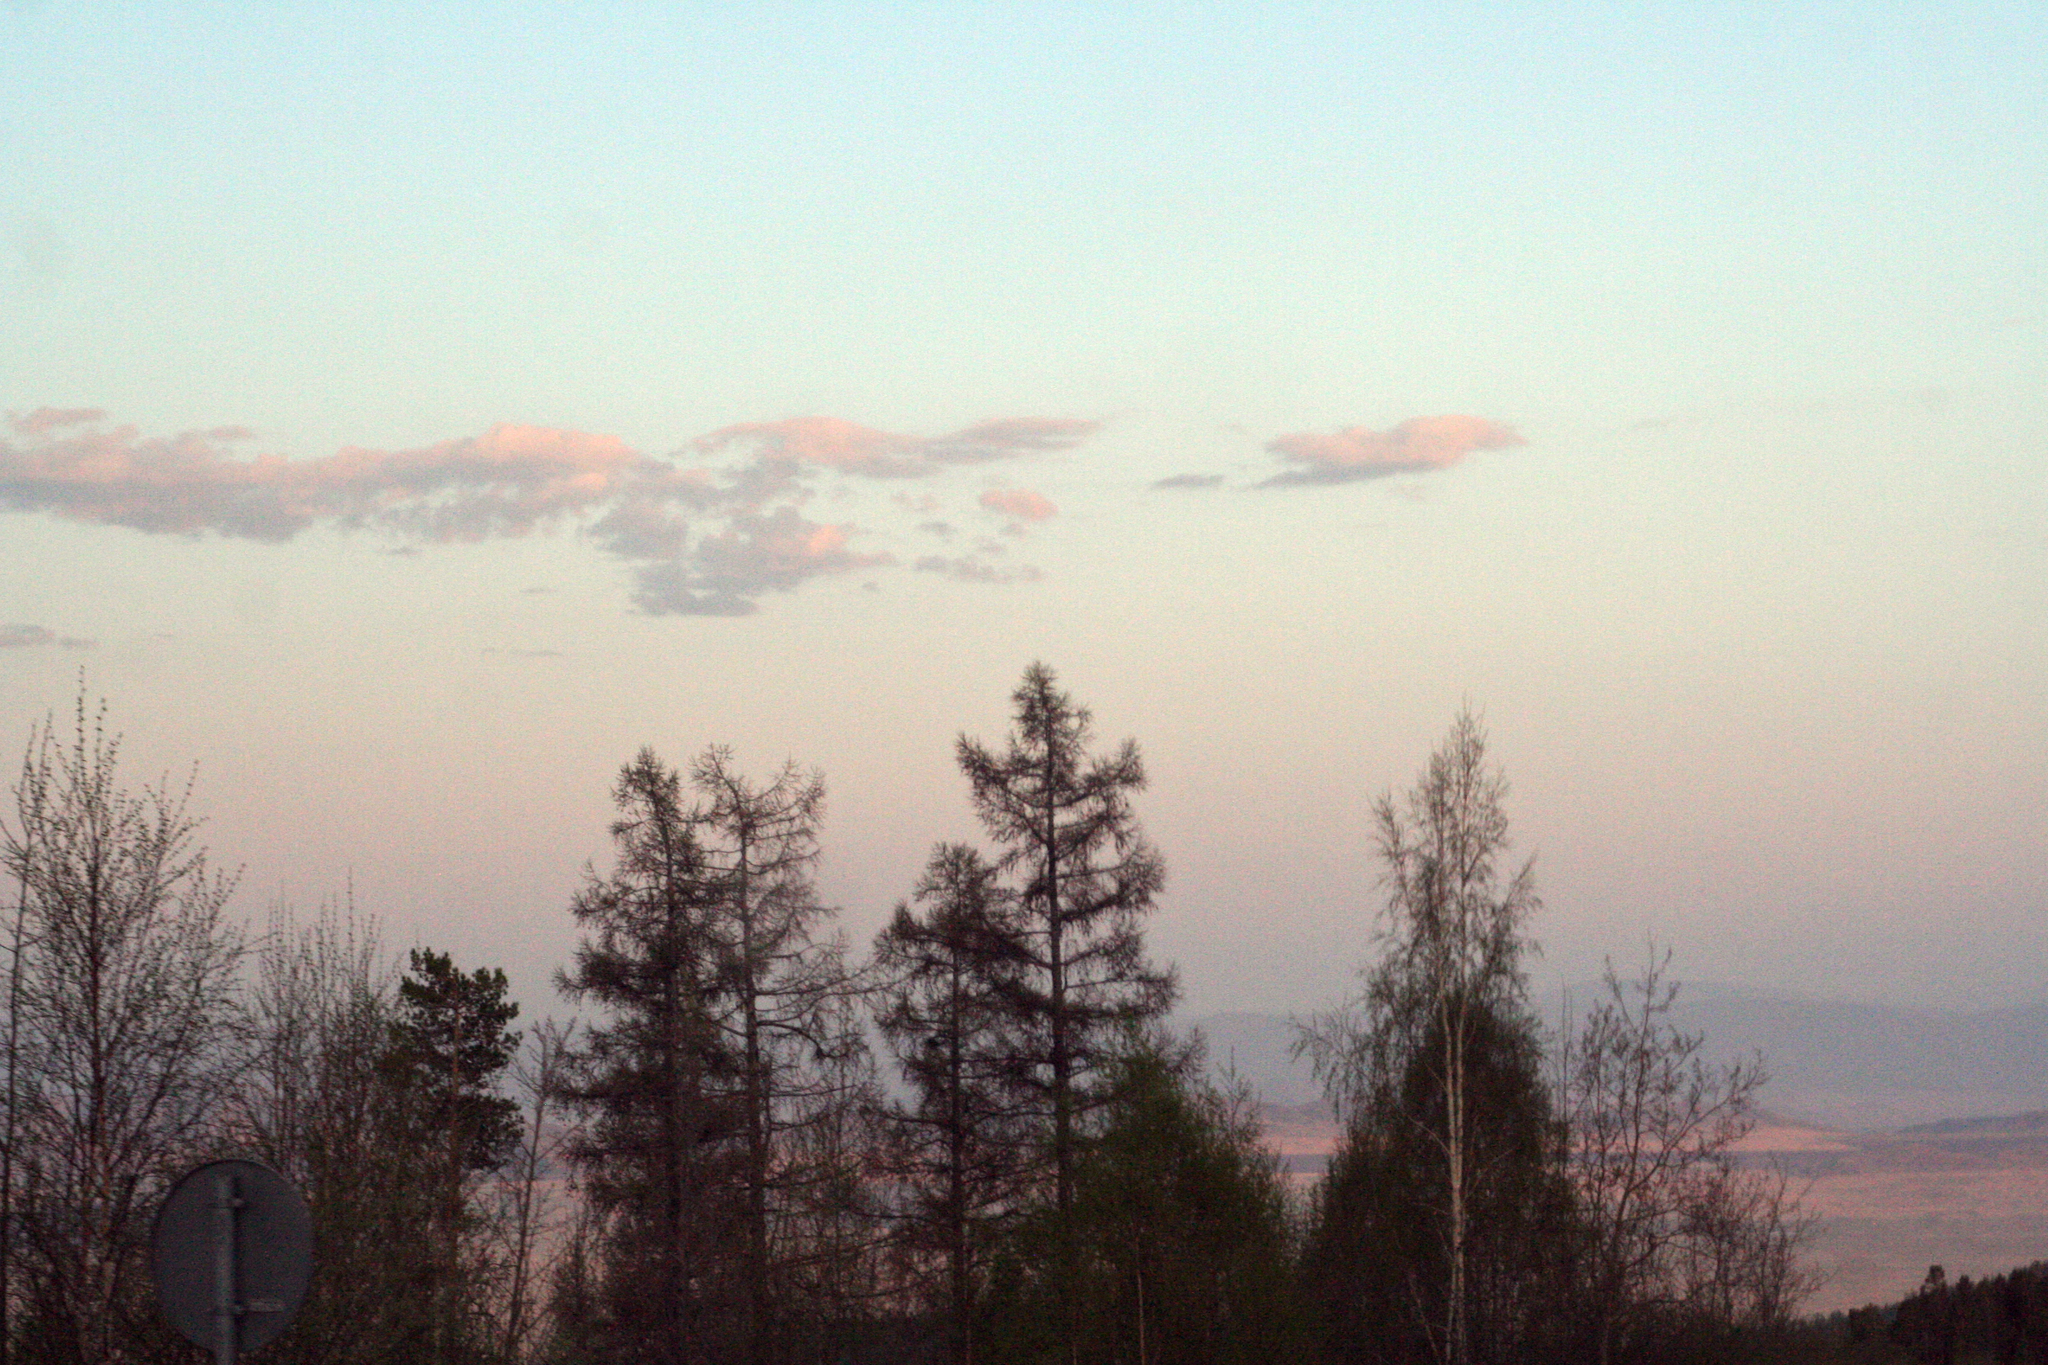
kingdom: Plantae
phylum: Tracheophyta
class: Pinopsida
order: Pinales
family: Pinaceae
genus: Larix
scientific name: Larix sibirica
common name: Siberian larch
